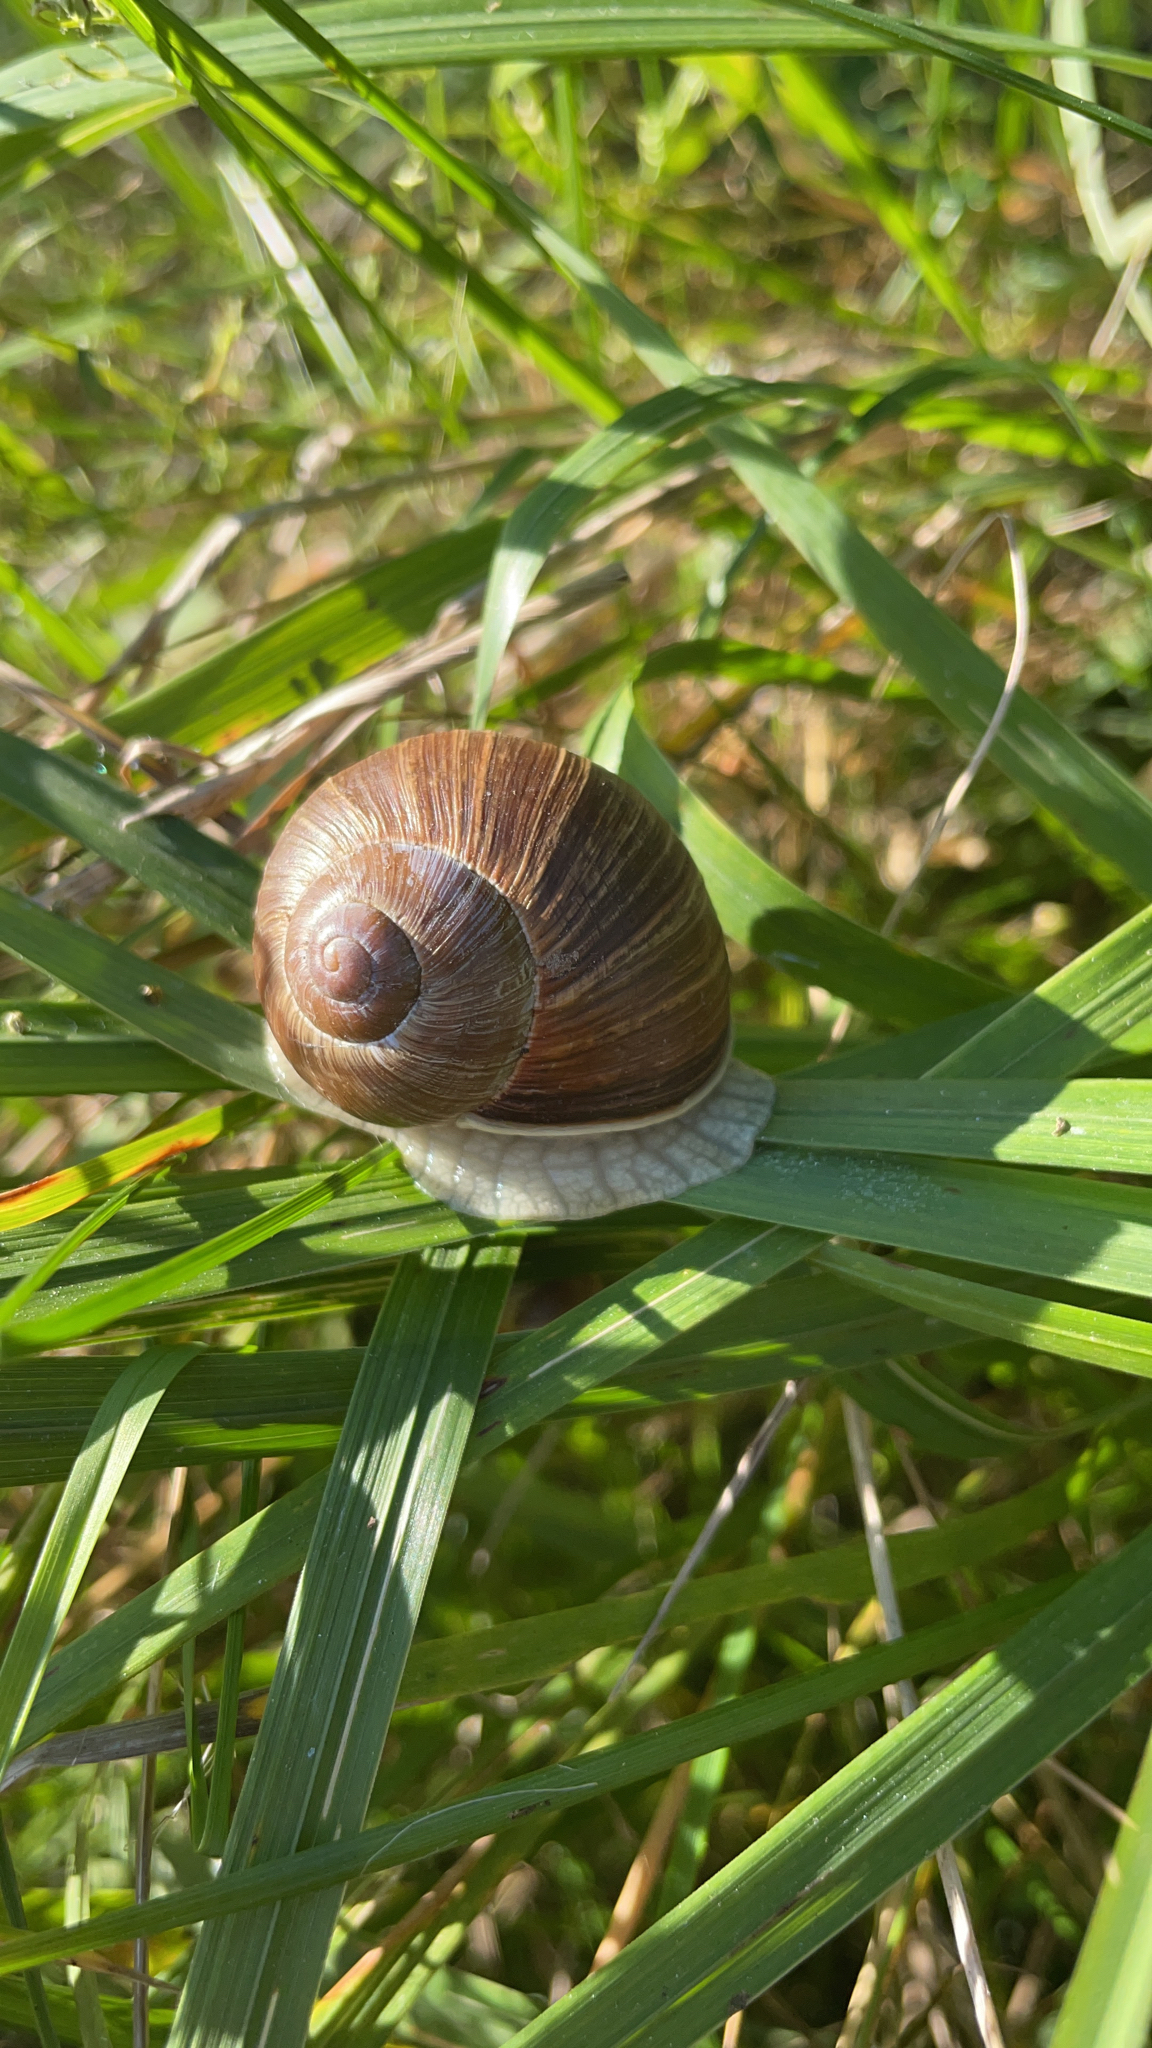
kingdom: Animalia
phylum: Mollusca
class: Gastropoda
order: Stylommatophora
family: Helicidae
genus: Helix
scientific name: Helix pomatia
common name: Roman snail
